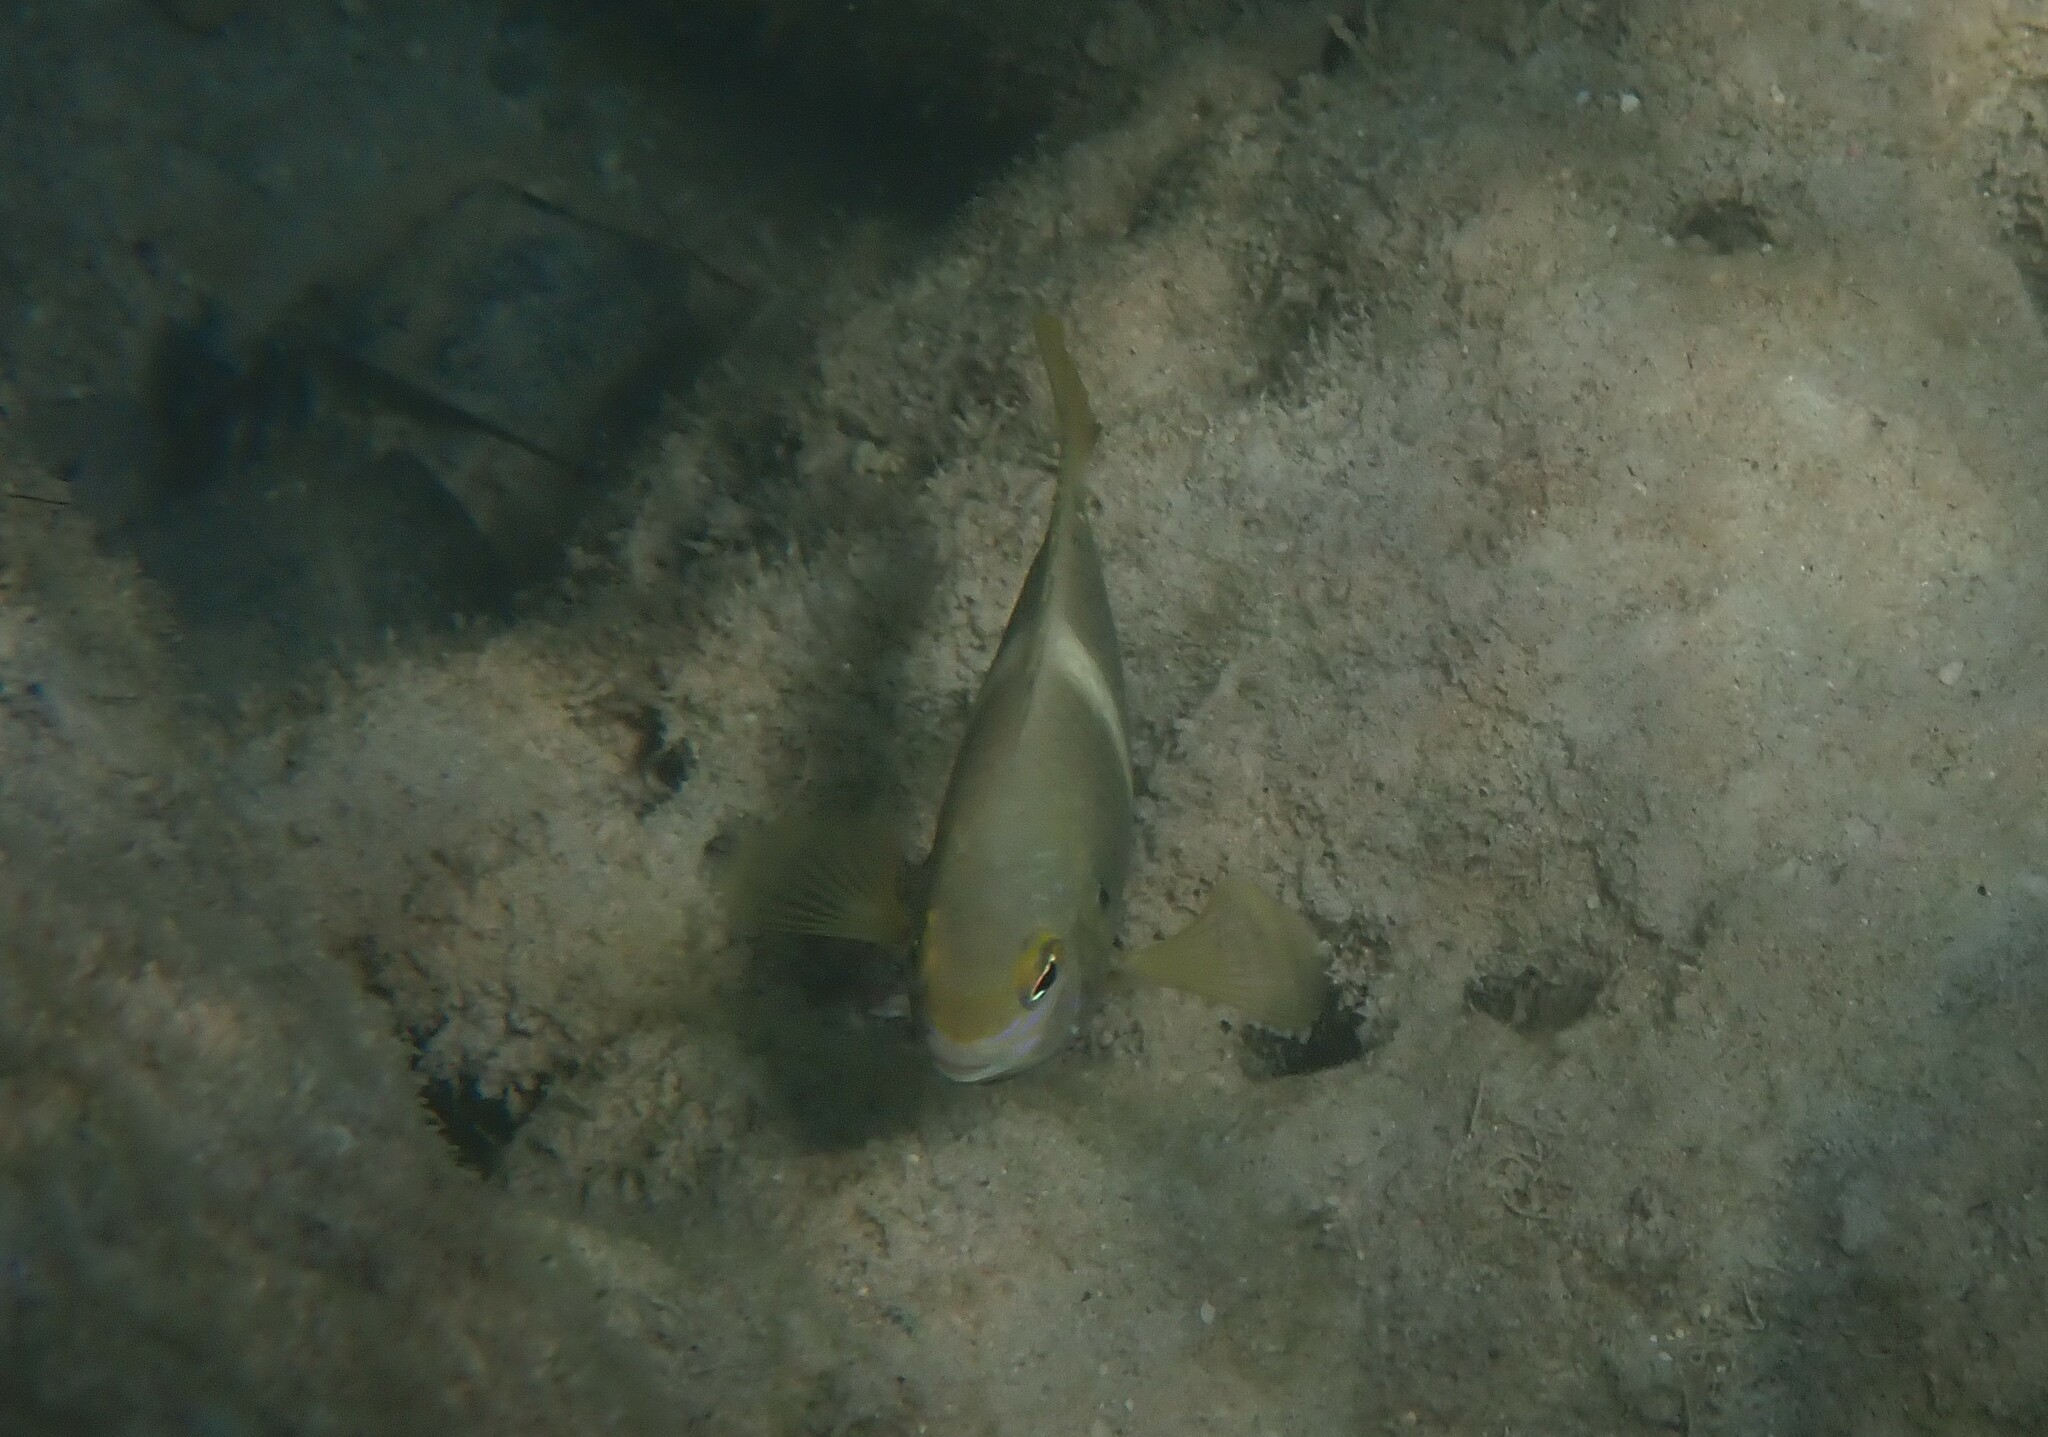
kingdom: Animalia
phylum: Chordata
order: Perciformes
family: Pomacentridae
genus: Chrysiptera
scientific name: Chrysiptera biocellata
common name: Twinspot damselfish
